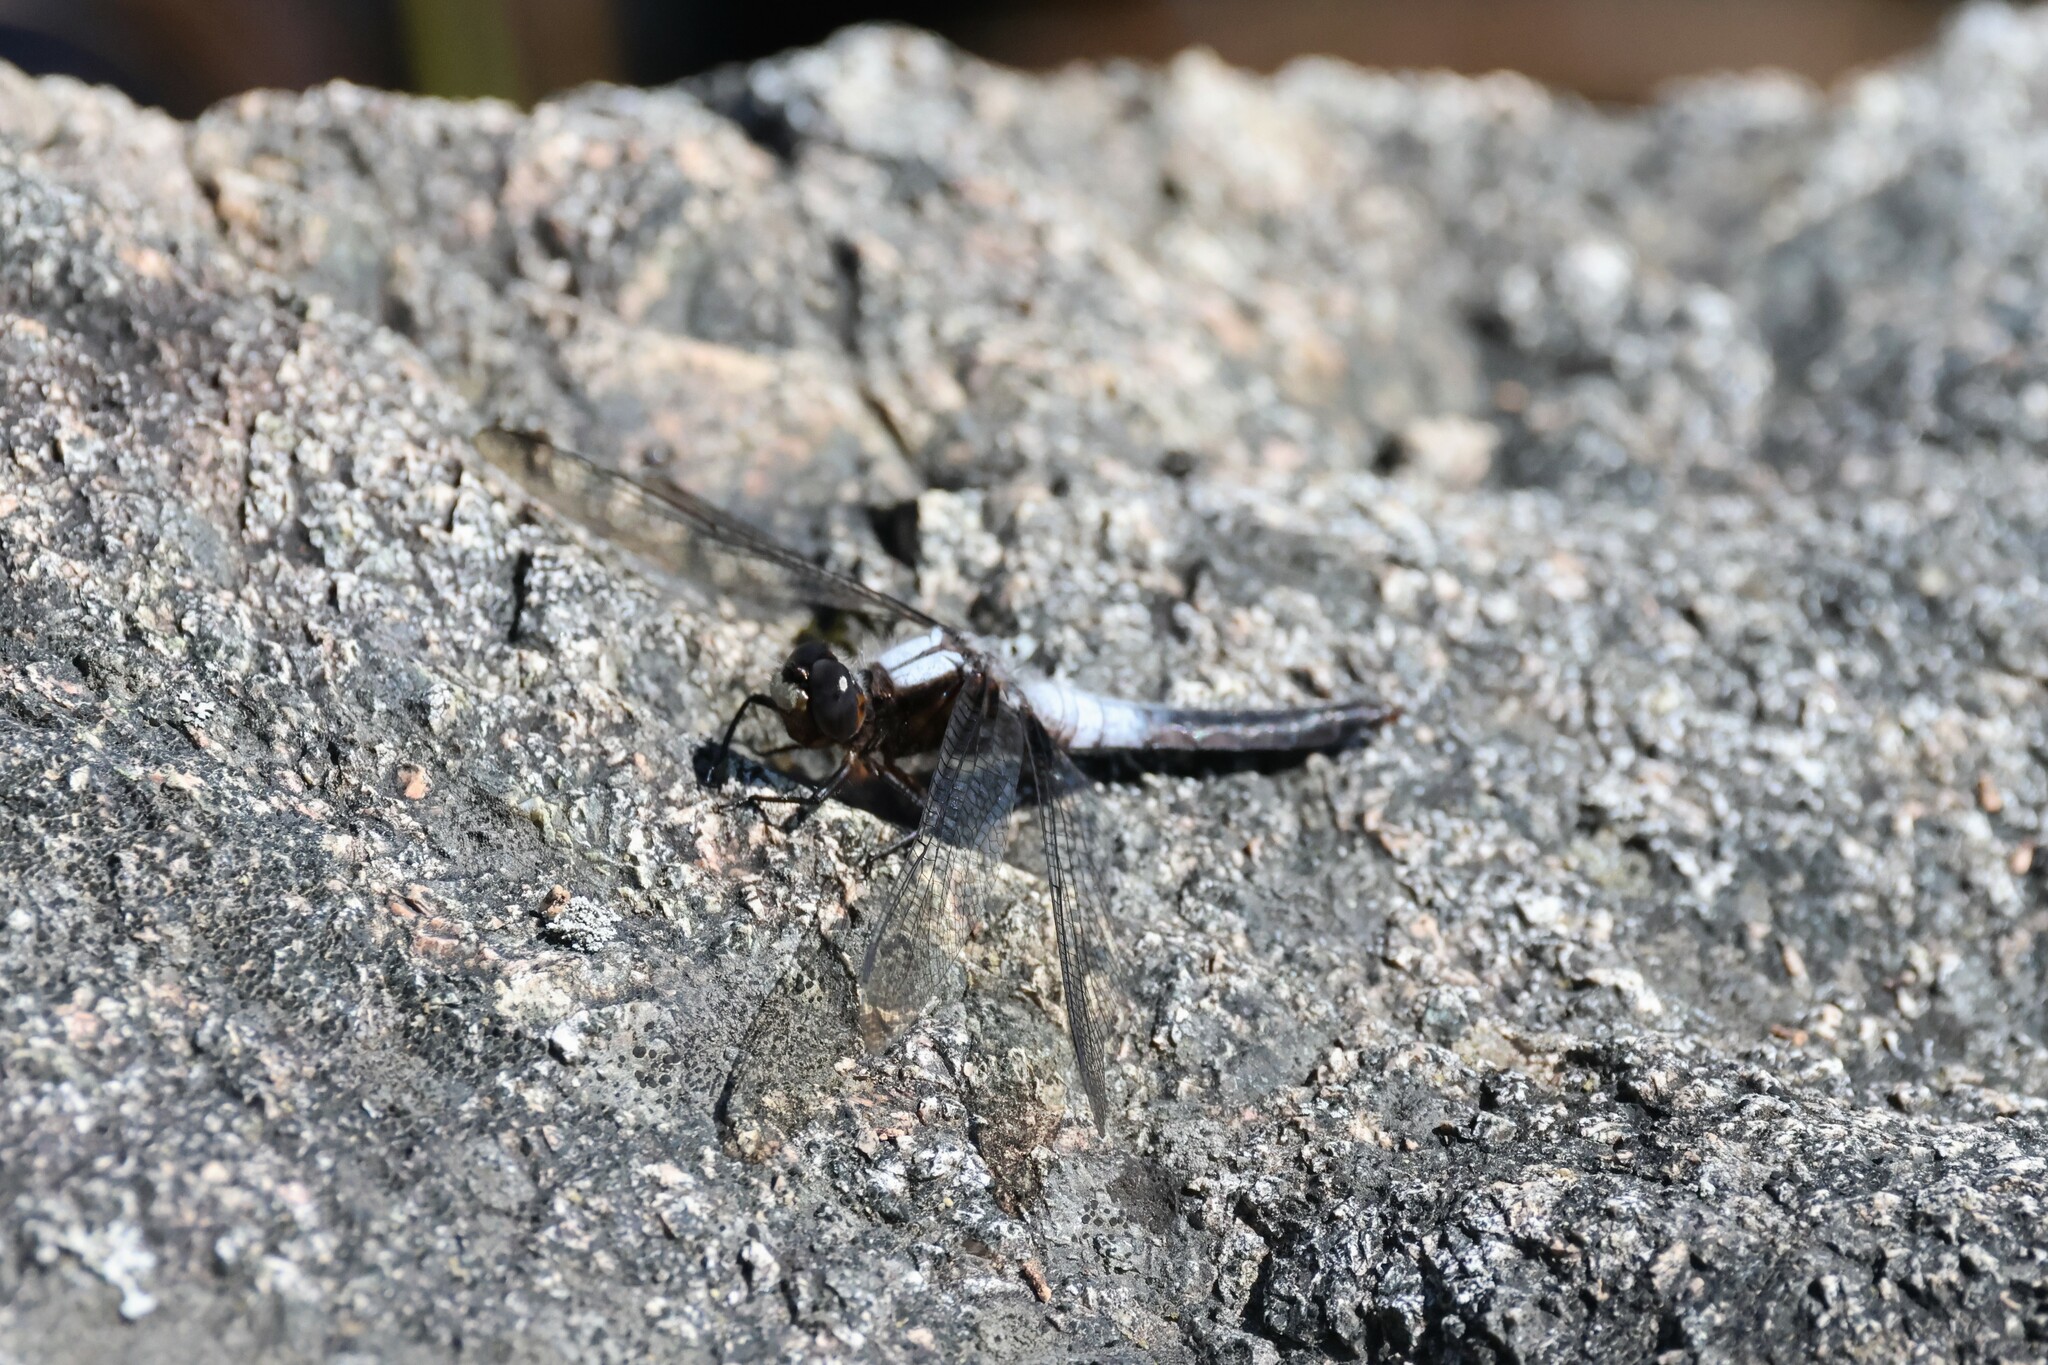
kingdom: Animalia
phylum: Arthropoda
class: Insecta
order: Odonata
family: Libellulidae
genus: Ladona
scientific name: Ladona julia
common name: Chalk-fronted corporal
